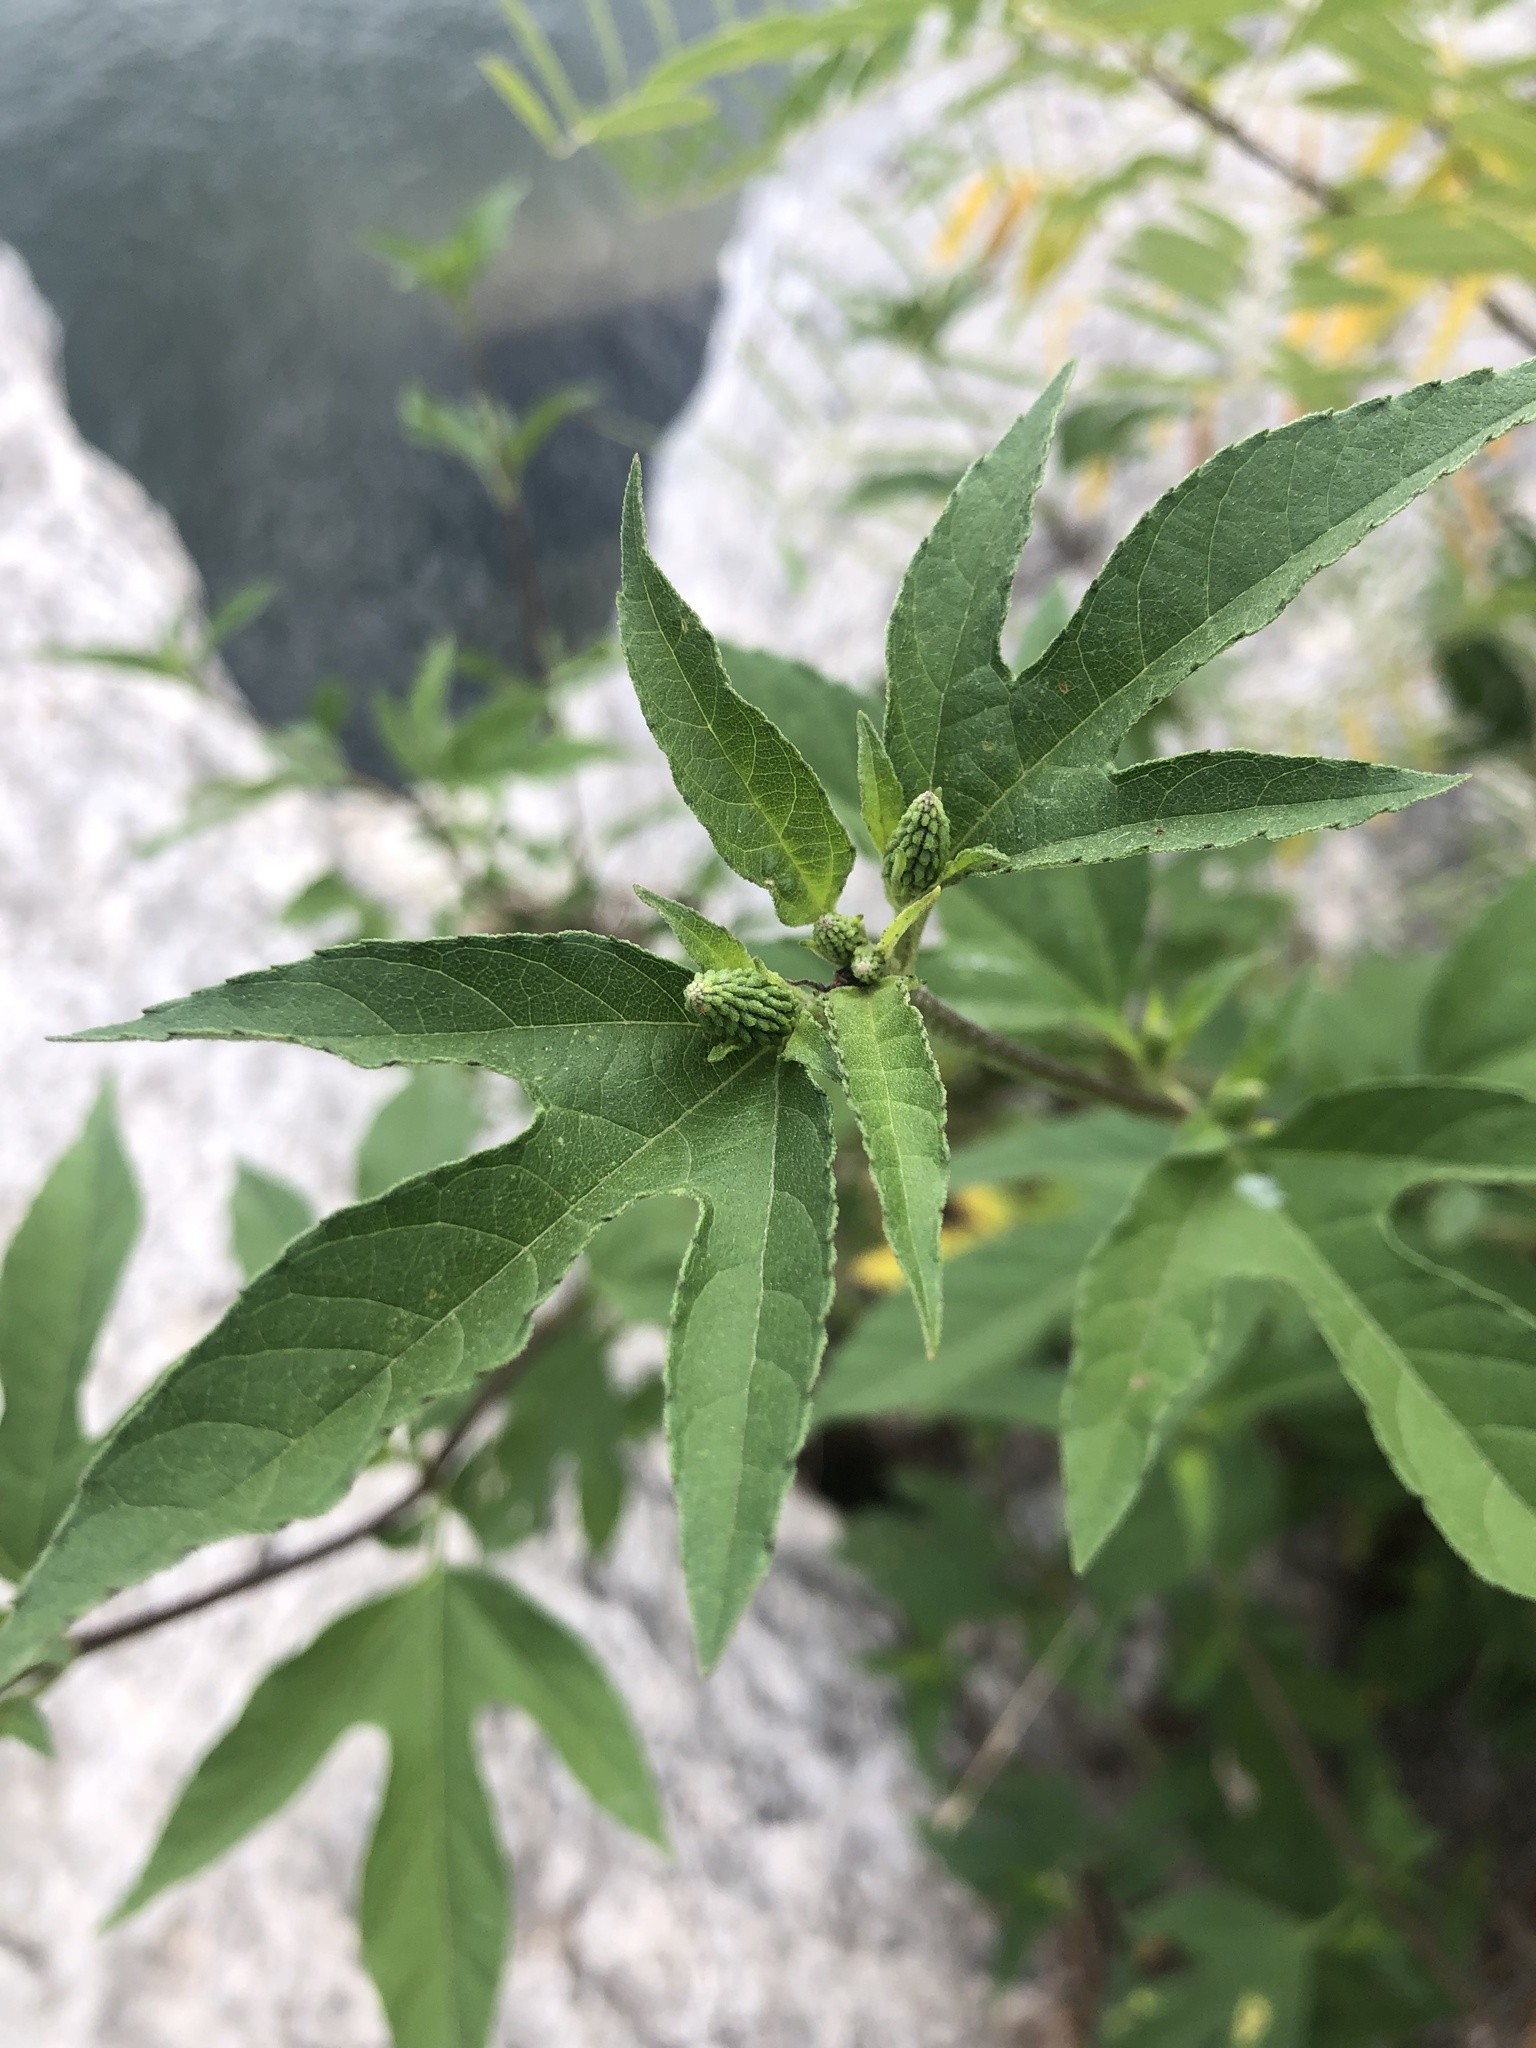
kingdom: Plantae
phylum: Tracheophyta
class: Magnoliopsida
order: Asterales
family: Asteraceae
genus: Ambrosia
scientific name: Ambrosia trifida
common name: Giant ragweed
